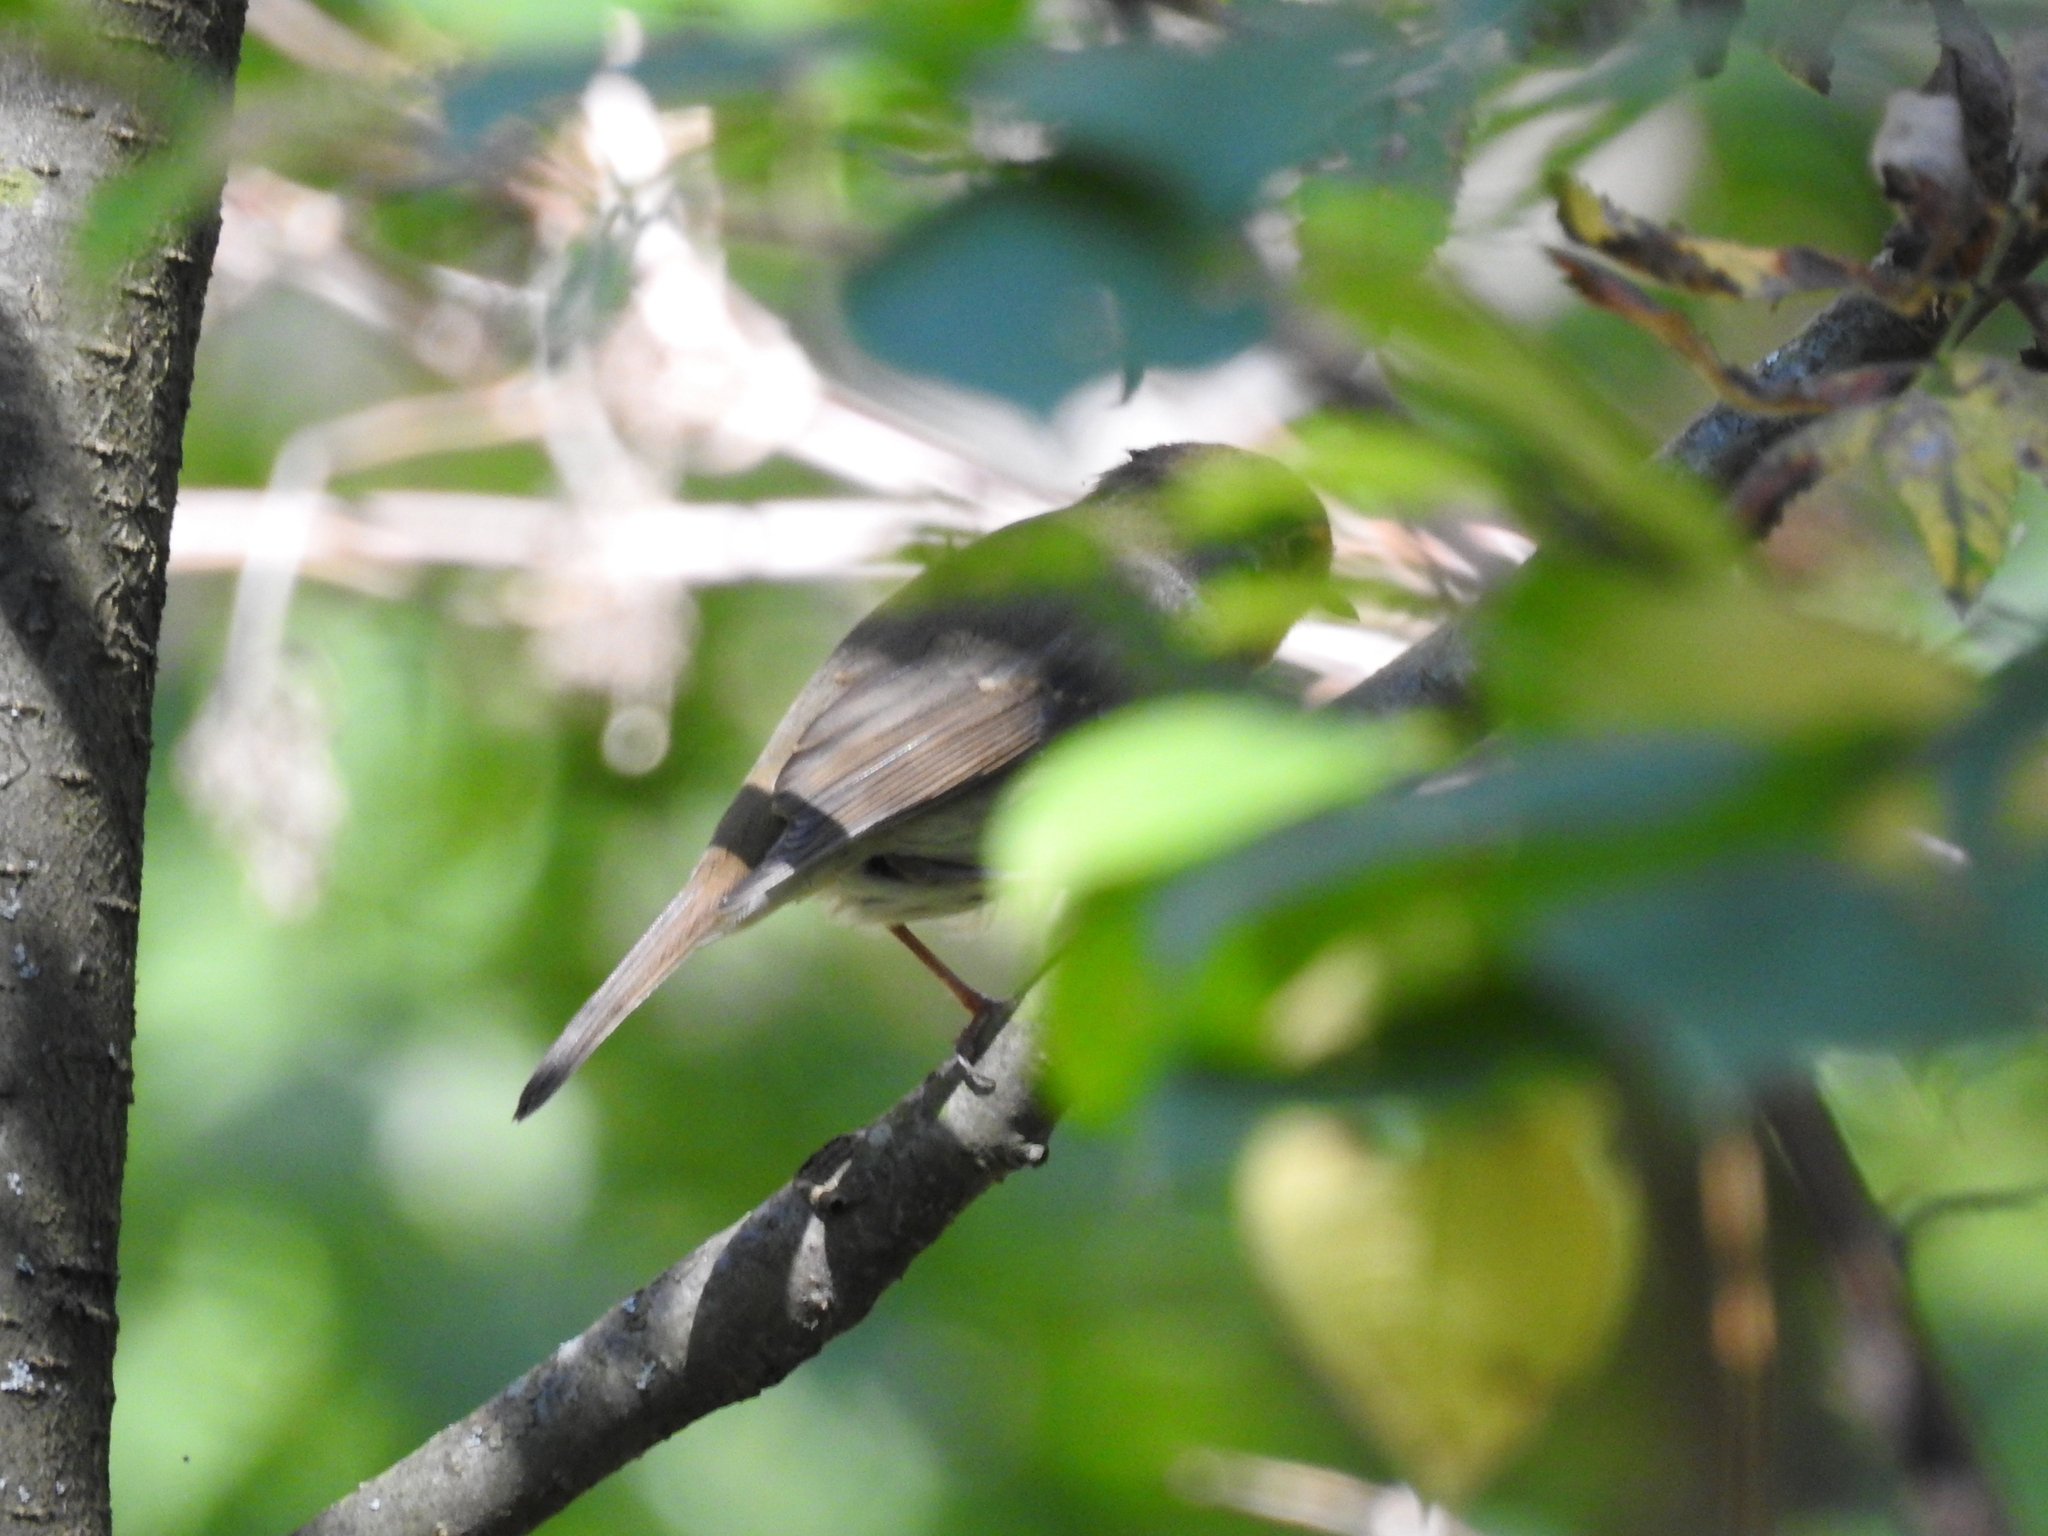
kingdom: Animalia
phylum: Chordata
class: Aves
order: Passeriformes
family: Muscicapidae
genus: Erithacus
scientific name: Erithacus rubecula
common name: European robin
